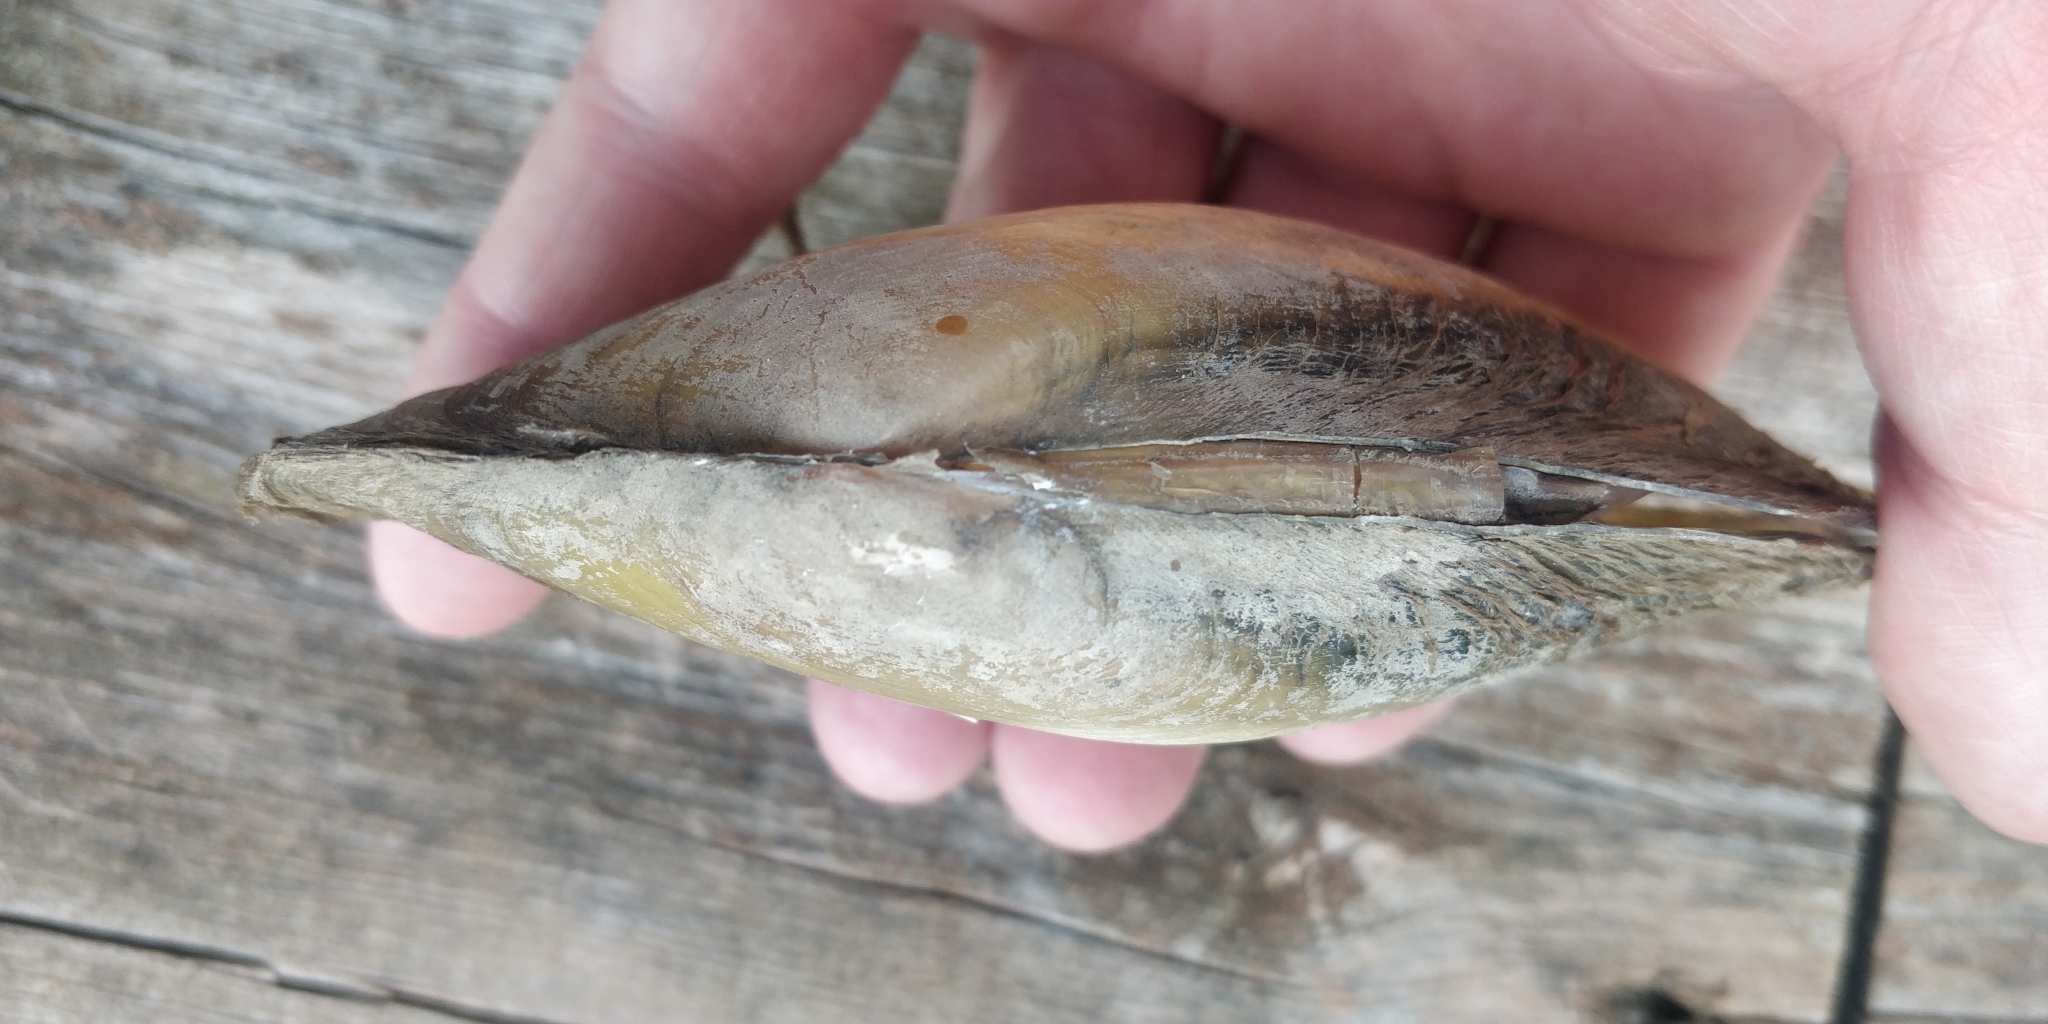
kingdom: Animalia
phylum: Mollusca
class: Bivalvia
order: Unionida
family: Unionidae
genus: Potamilus
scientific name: Potamilus fragilis
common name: Fragile papershell
